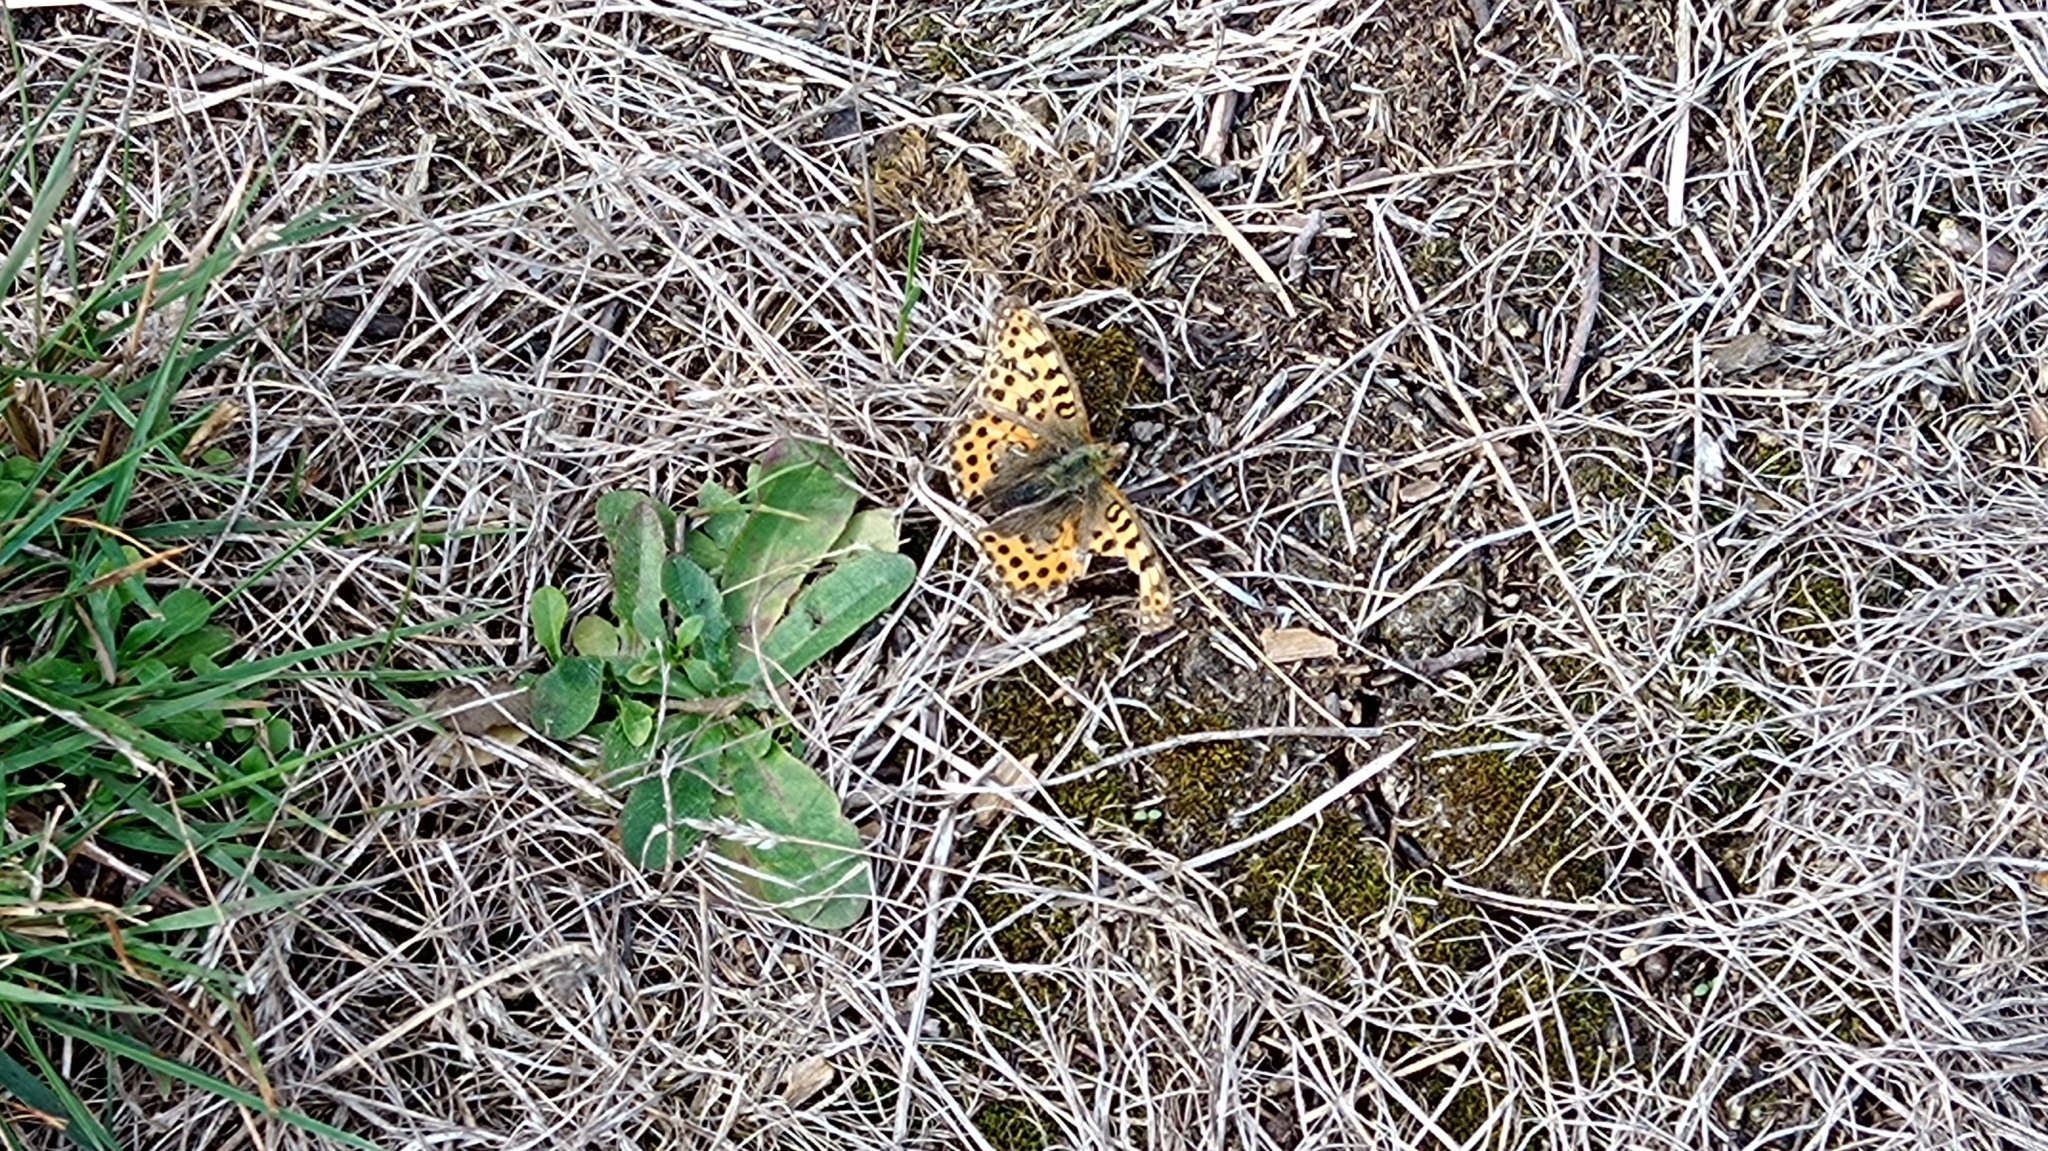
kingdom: Animalia
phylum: Arthropoda
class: Insecta
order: Lepidoptera
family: Nymphalidae
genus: Issoria
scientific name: Issoria lathonia
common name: Queen of spain fritillary
